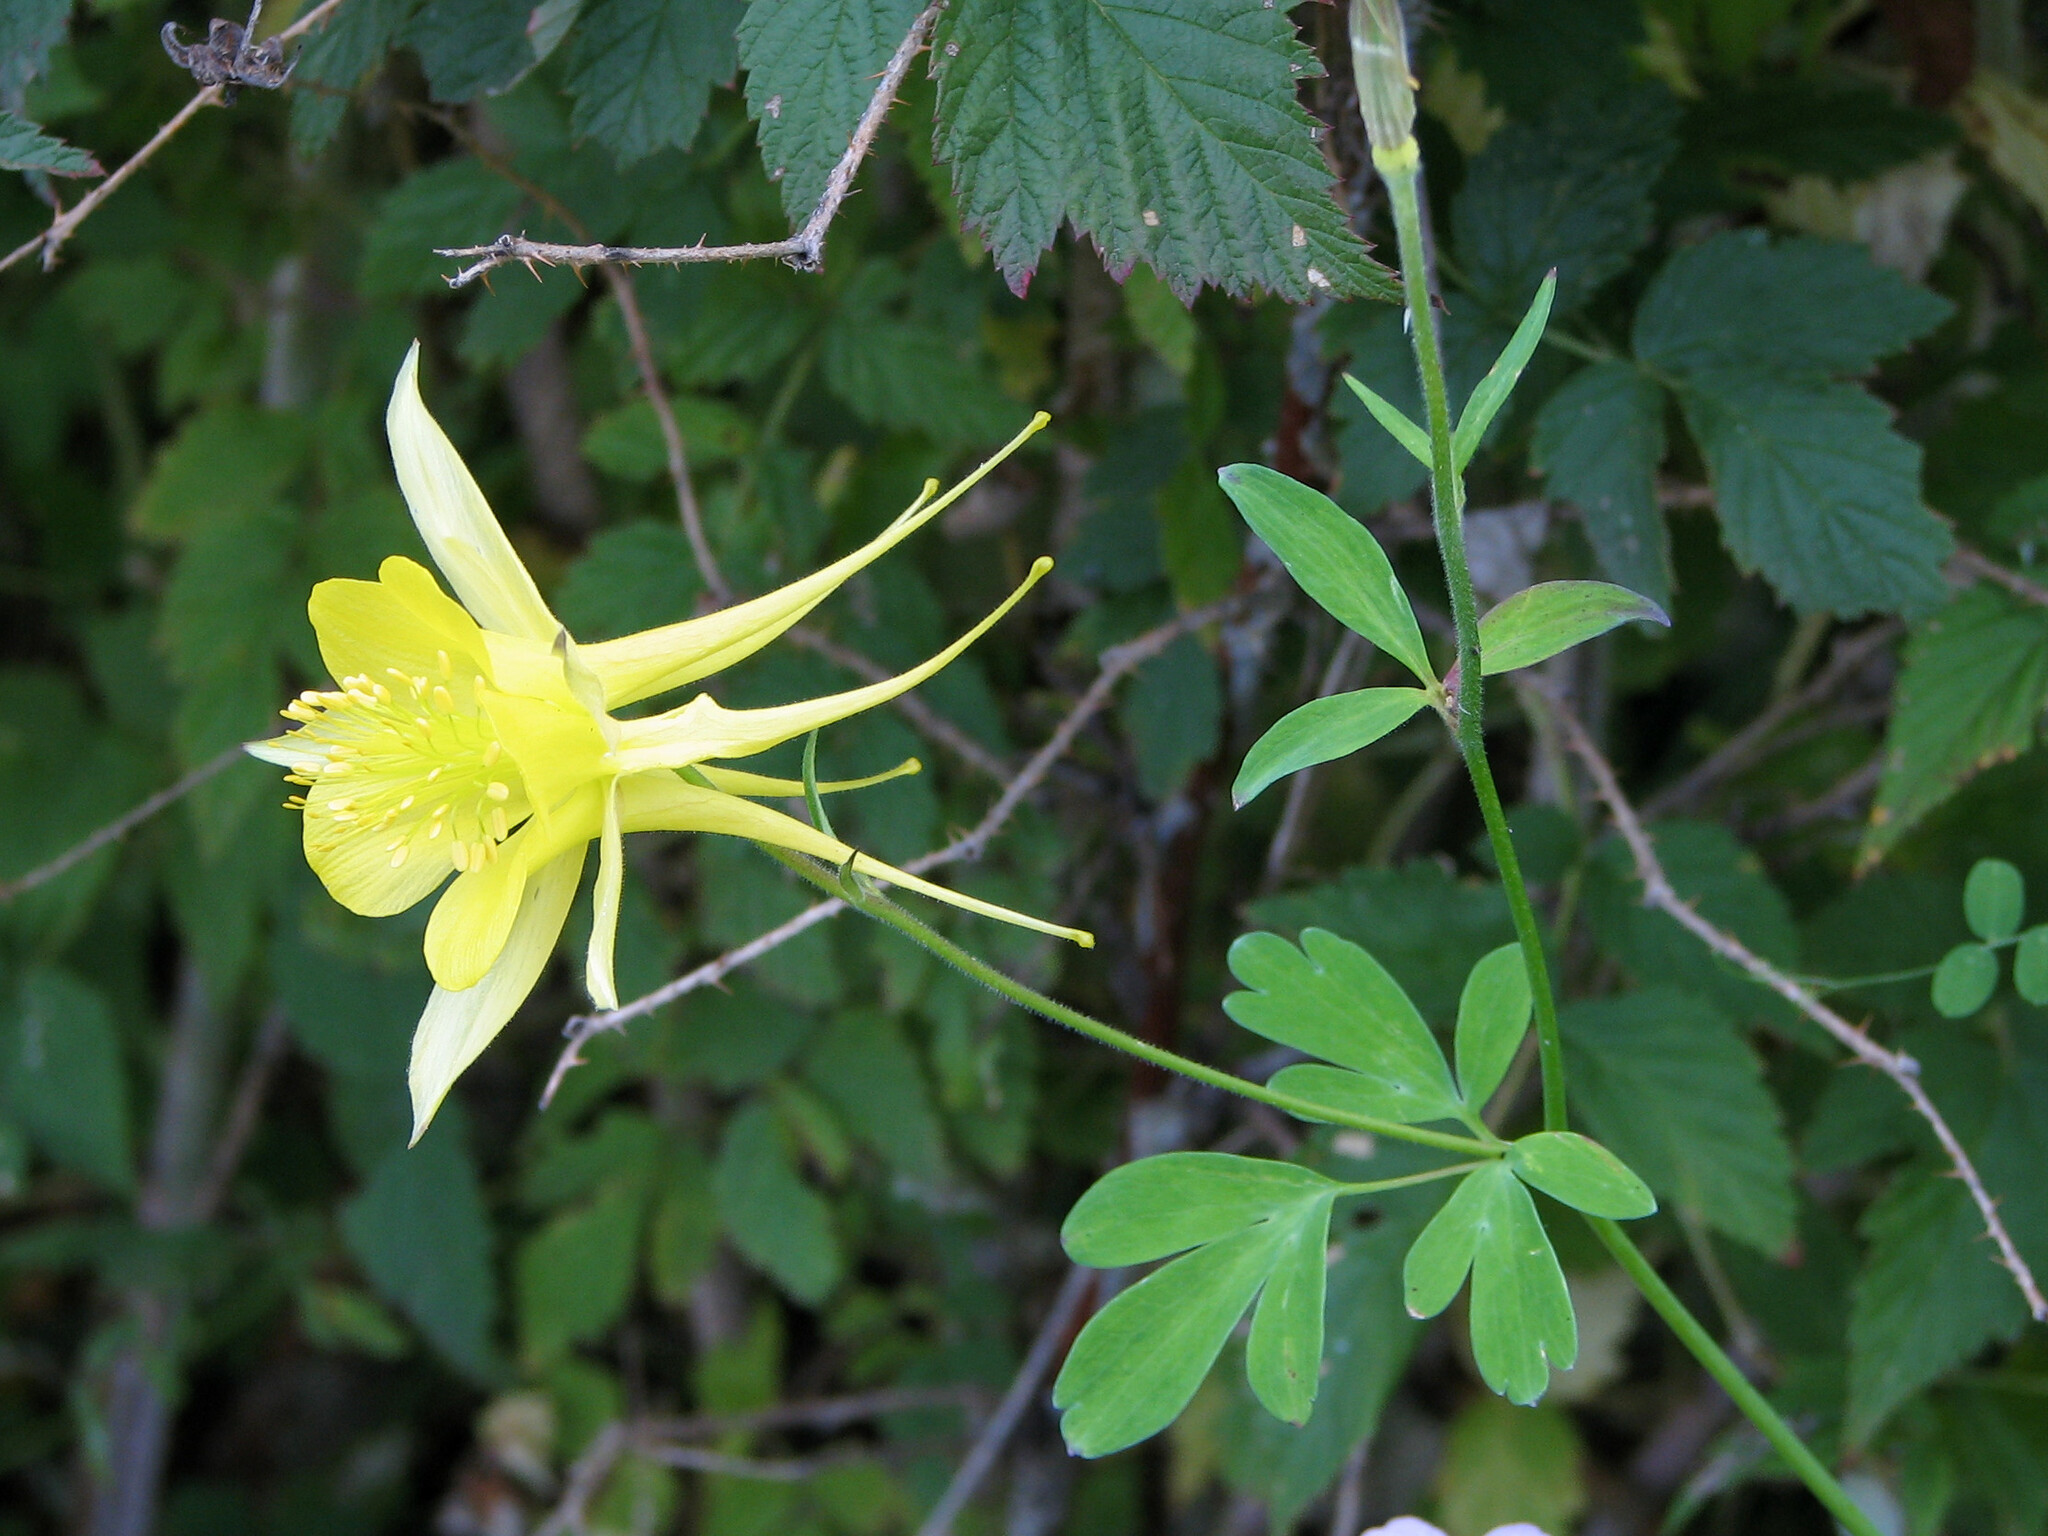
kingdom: Plantae
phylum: Tracheophyta
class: Magnoliopsida
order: Ranunculales
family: Ranunculaceae
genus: Aquilegia
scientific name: Aquilegia chrysantha
